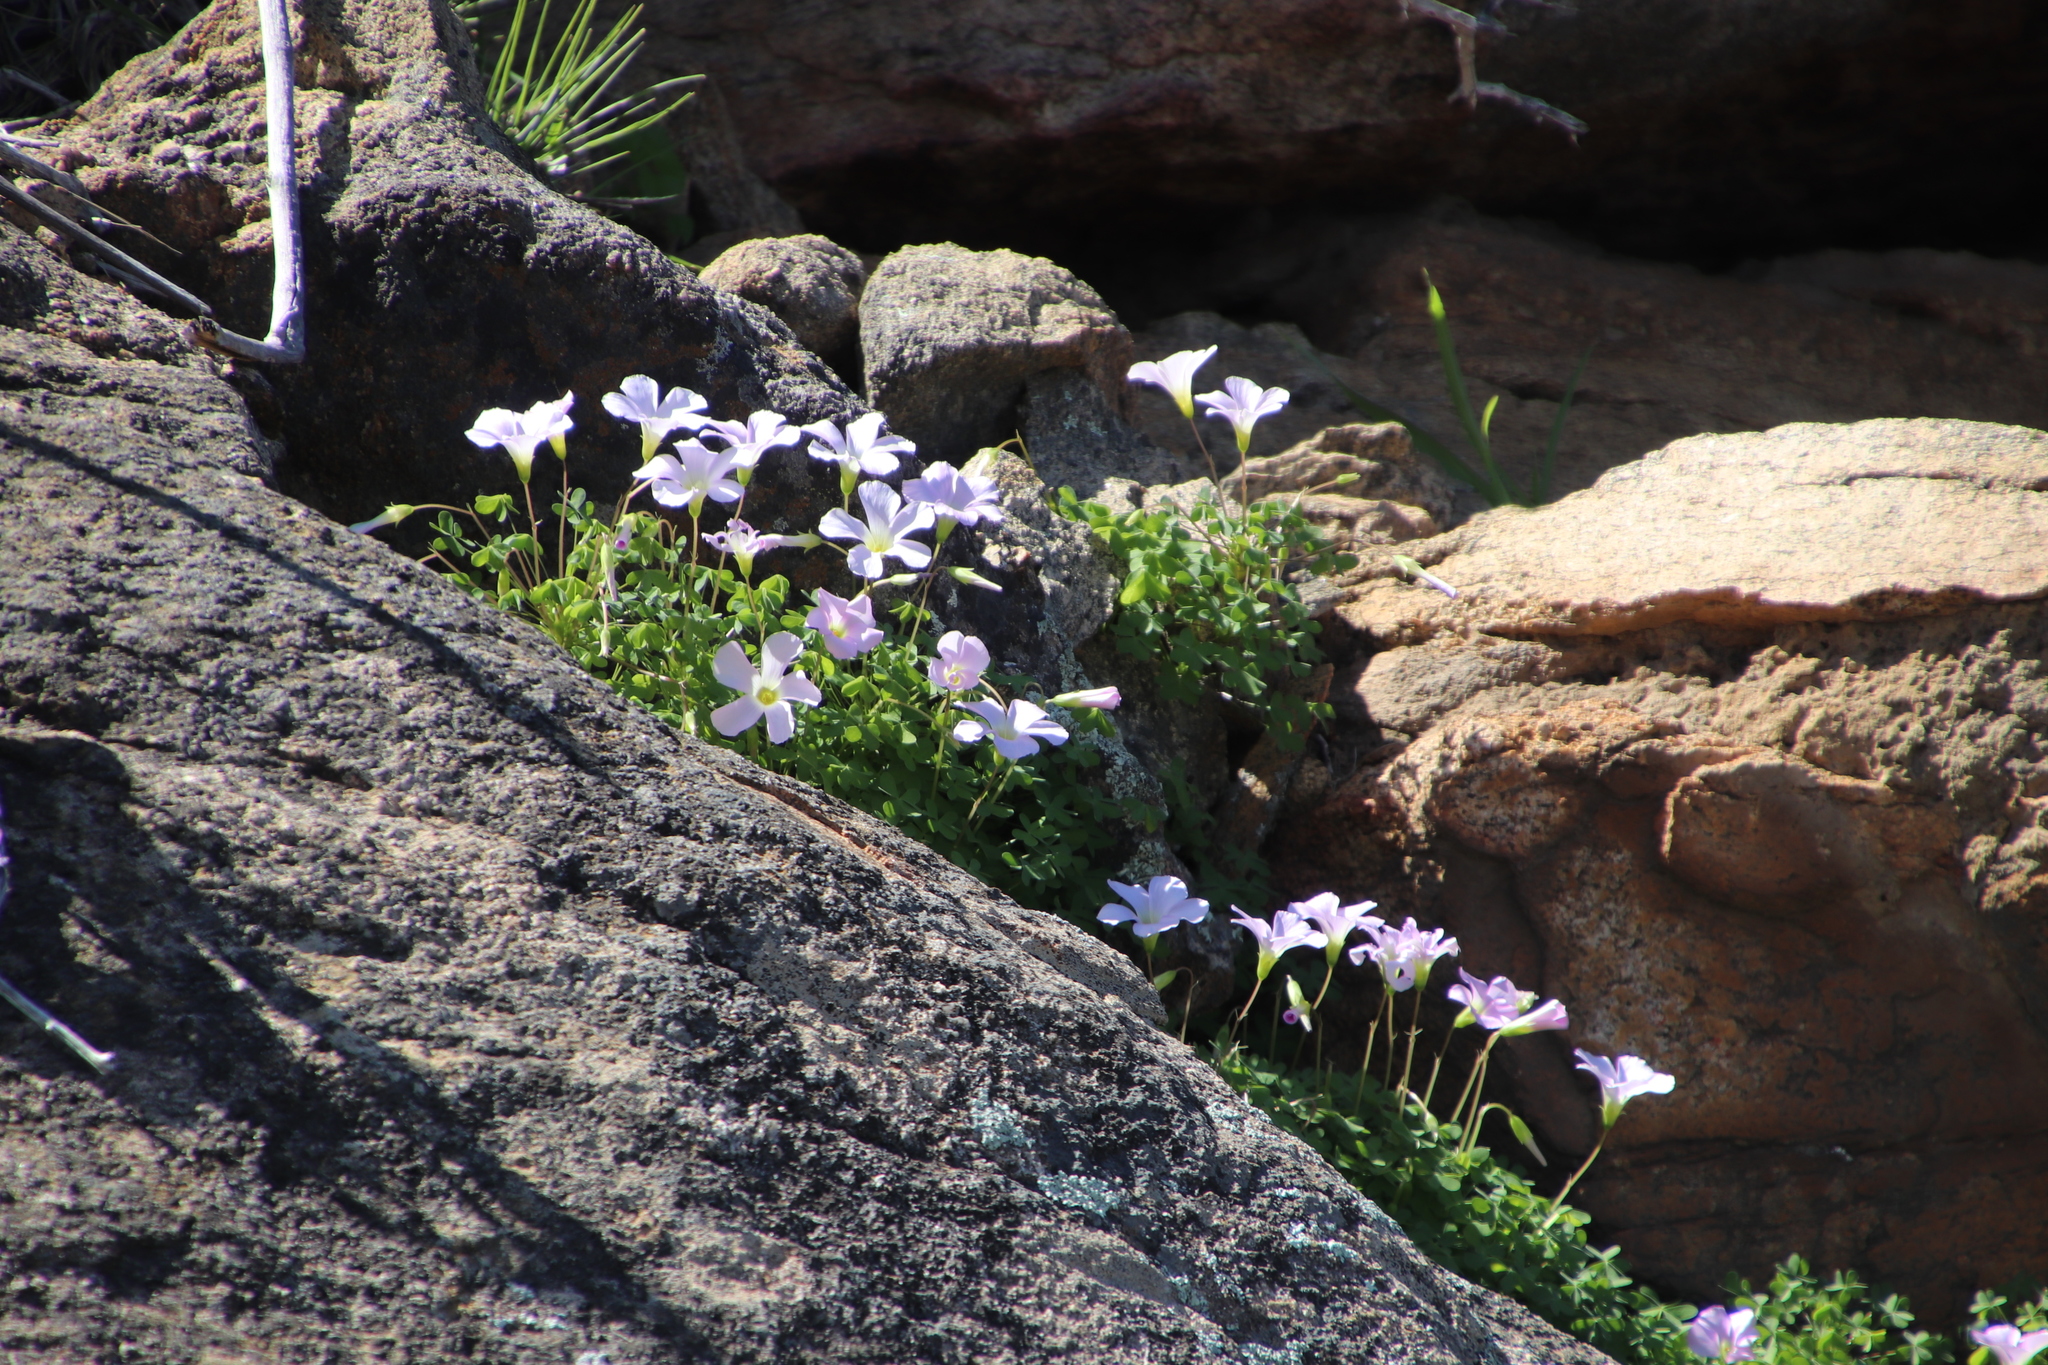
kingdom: Plantae
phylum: Tracheophyta
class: Magnoliopsida
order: Oxalidales
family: Oxalidaceae
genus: Oxalis
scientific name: Oxalis comosa
